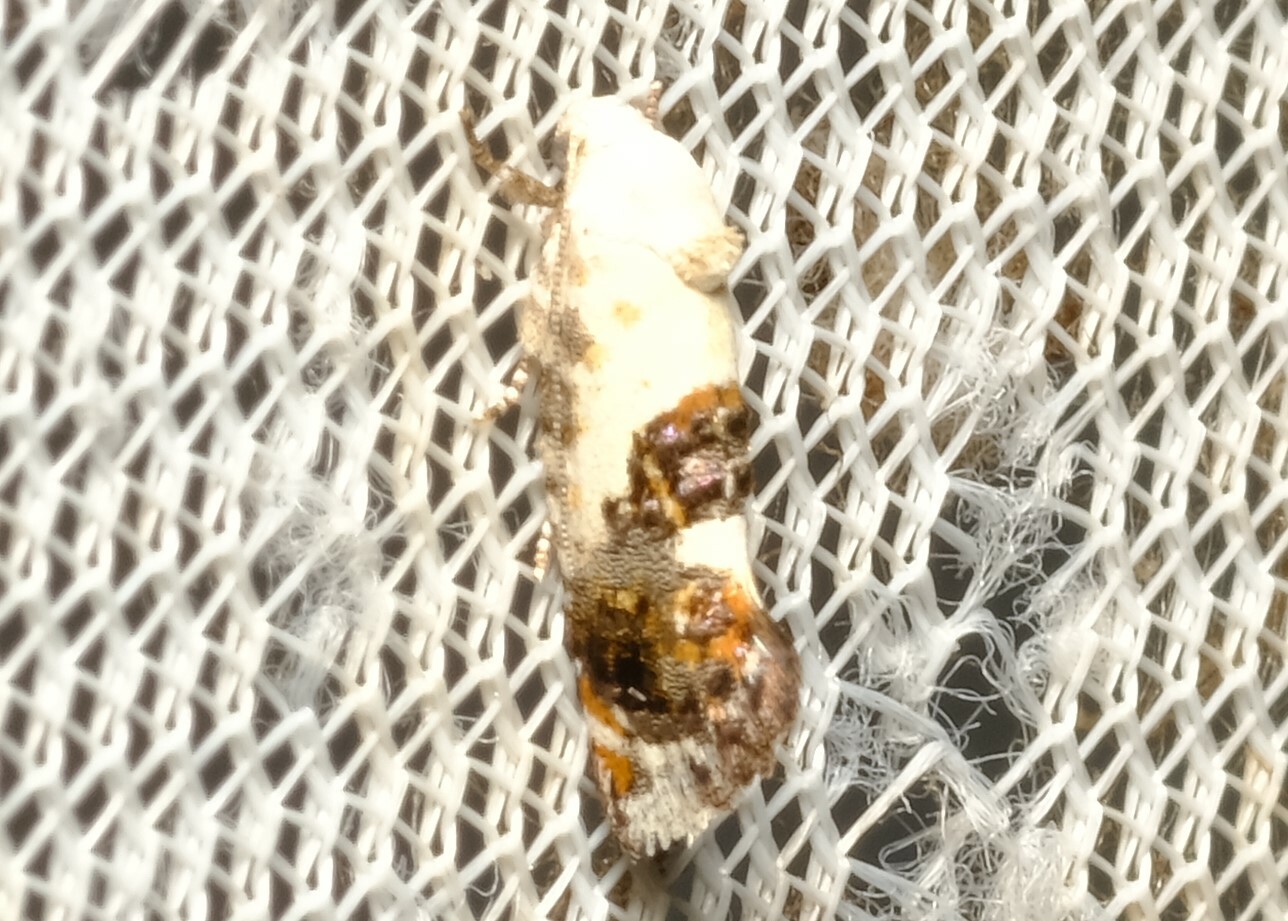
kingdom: Animalia
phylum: Arthropoda
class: Insecta
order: Lepidoptera
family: Depressariidae
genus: Progonica
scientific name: Progonica rhothias
